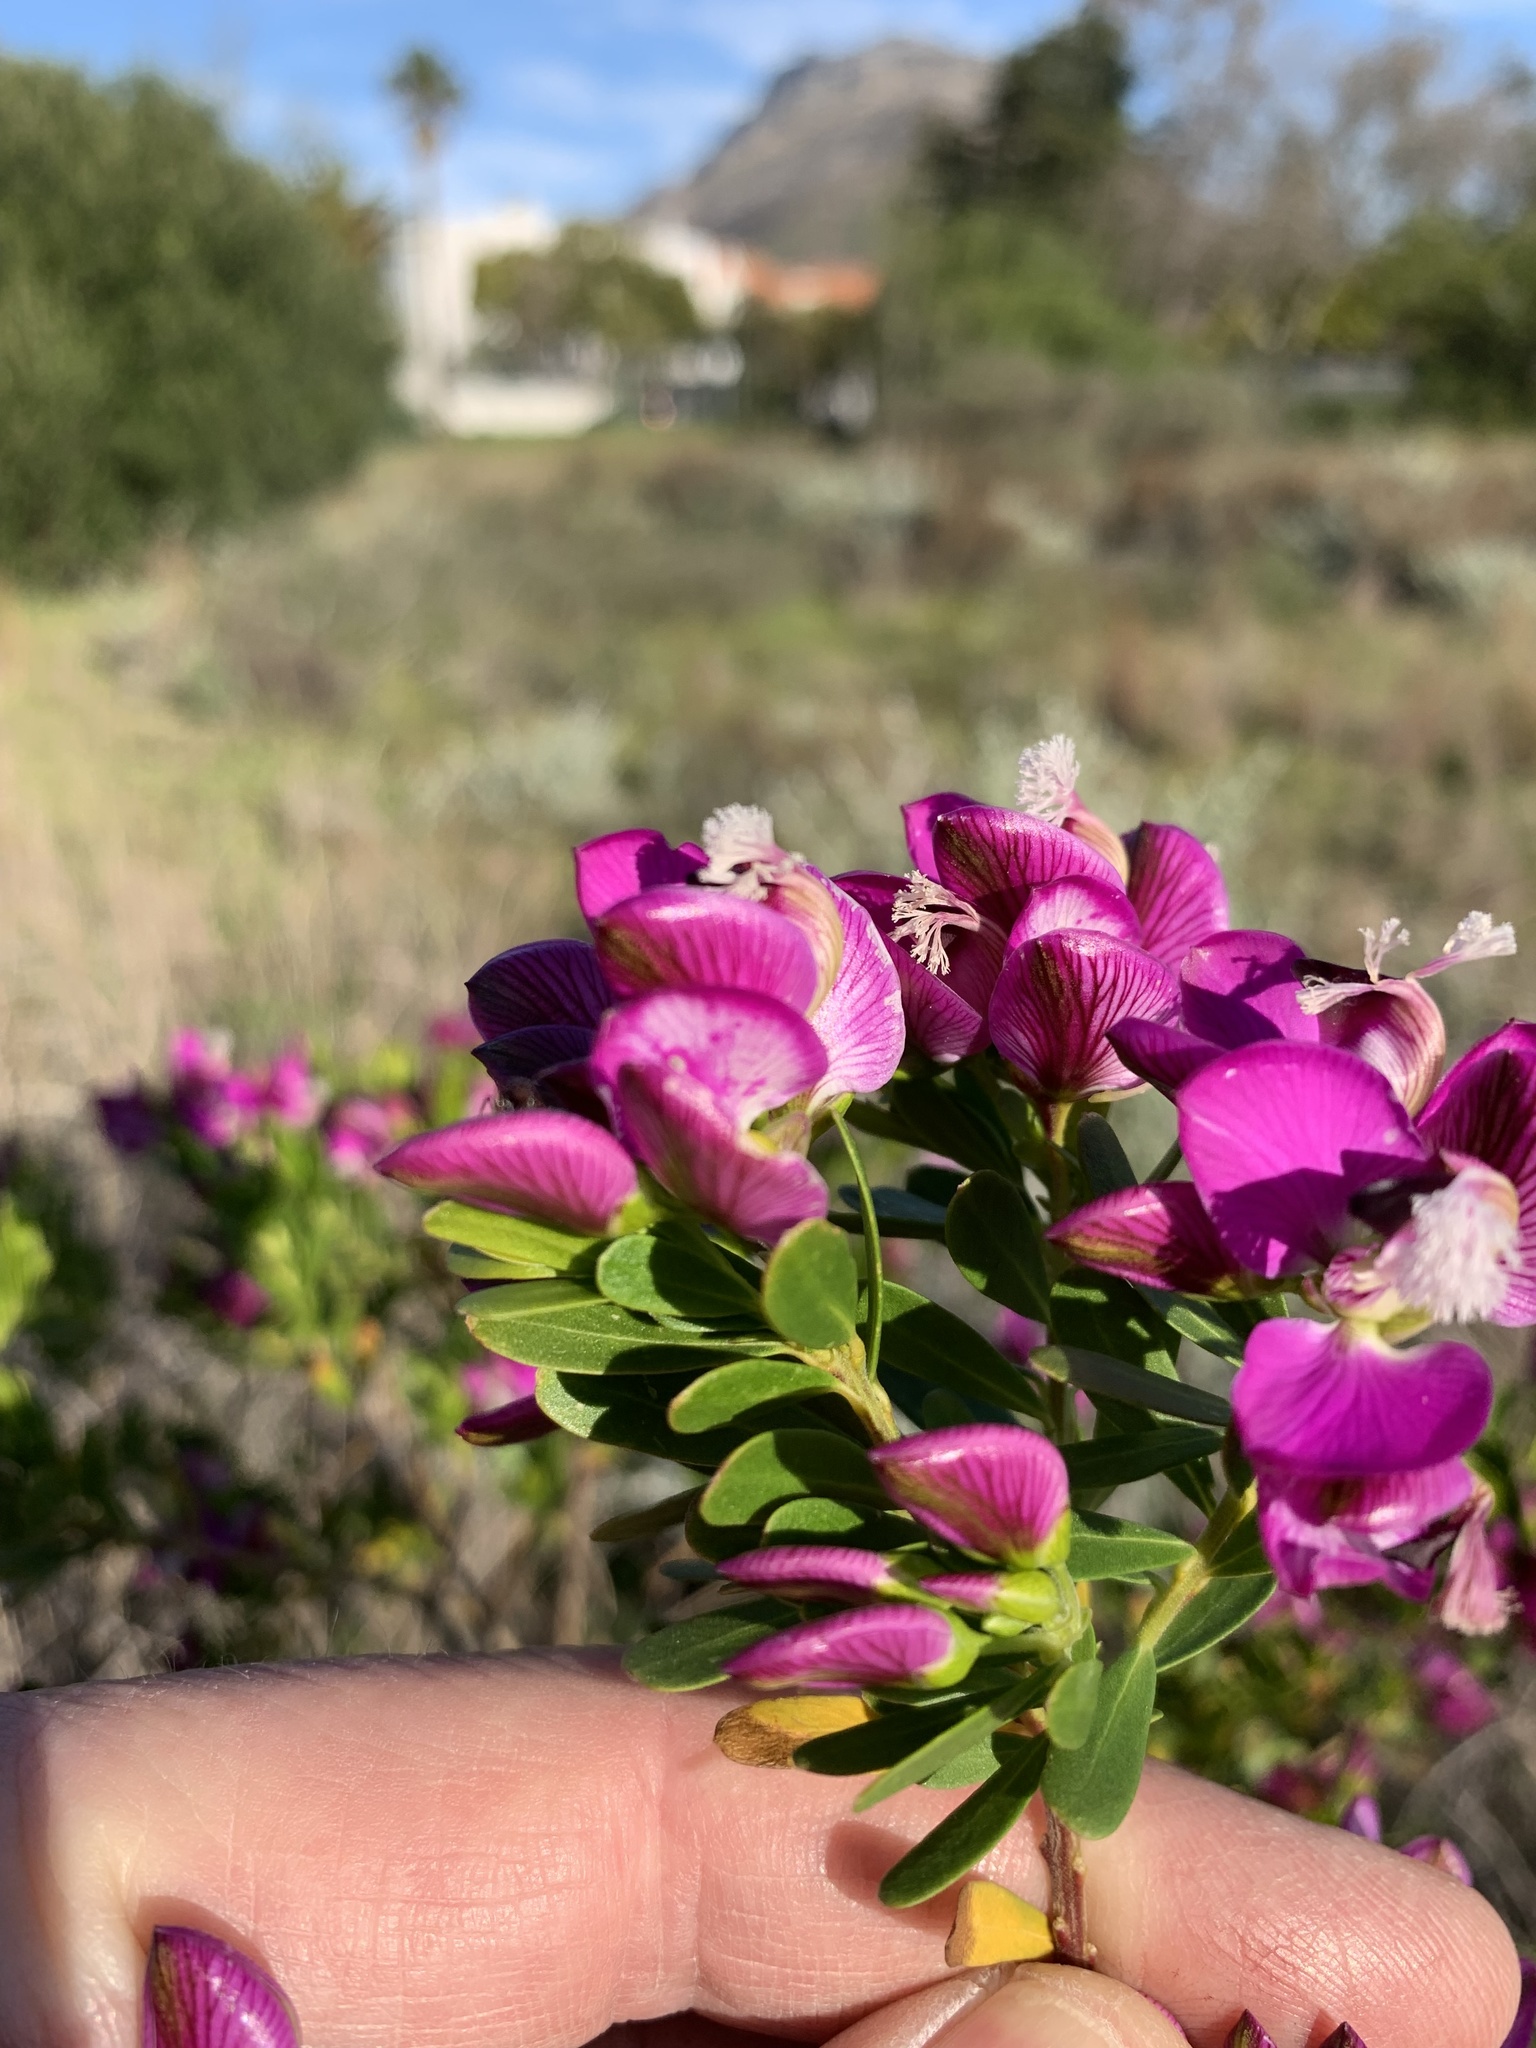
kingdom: Plantae
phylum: Tracheophyta
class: Magnoliopsida
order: Fabales
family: Polygalaceae
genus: Polygala
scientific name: Polygala myrtifolia
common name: Myrtle-leaf milkwort
